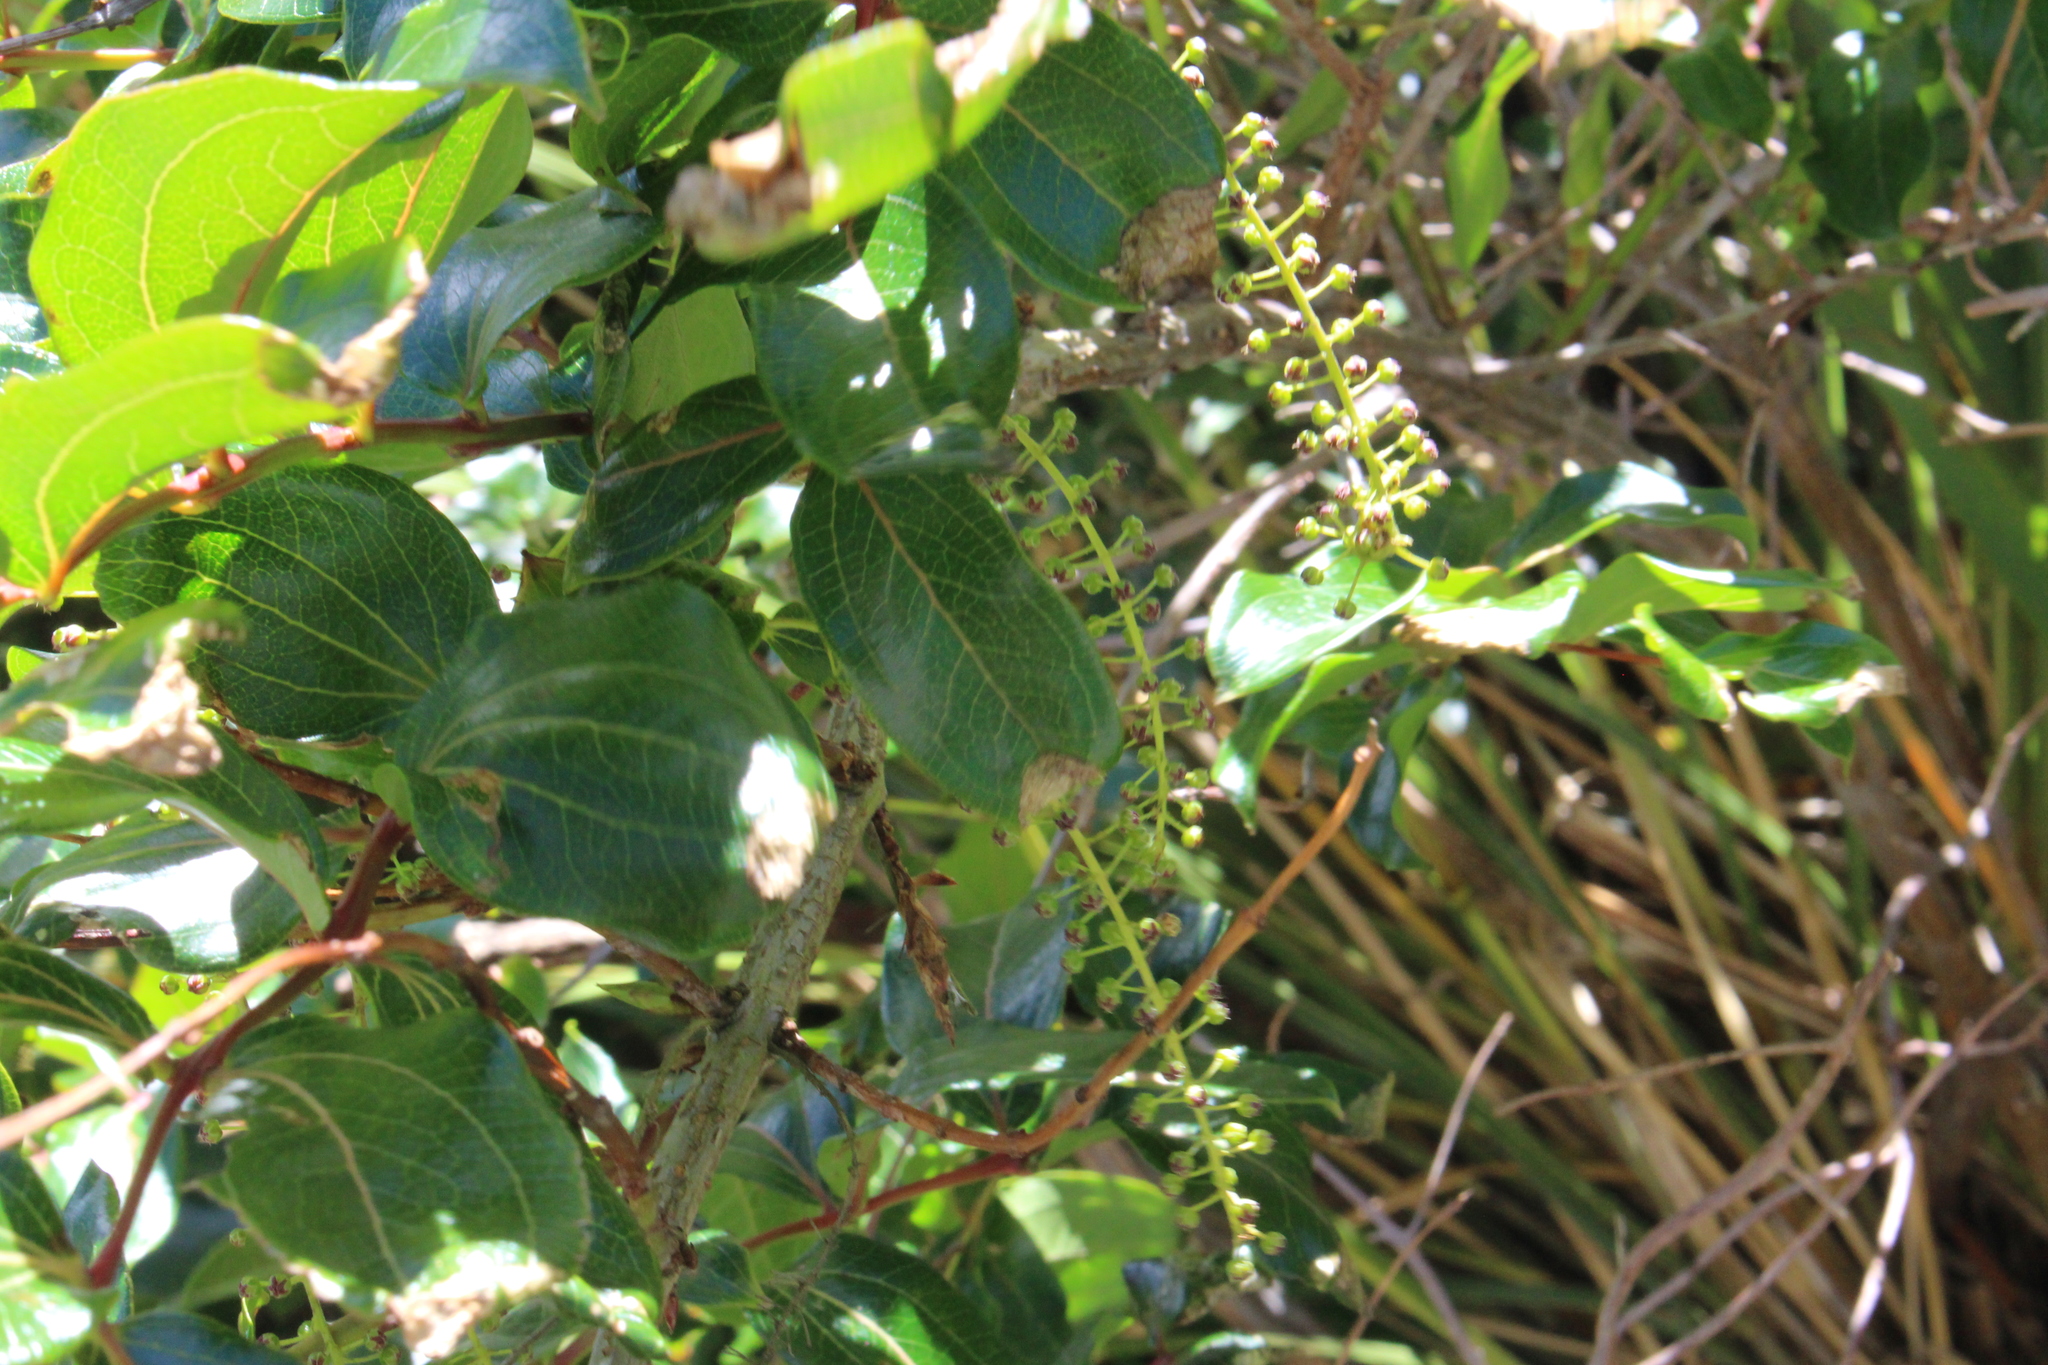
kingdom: Plantae
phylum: Tracheophyta
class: Magnoliopsida
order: Cucurbitales
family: Coriariaceae
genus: Coriaria
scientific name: Coriaria arborea
